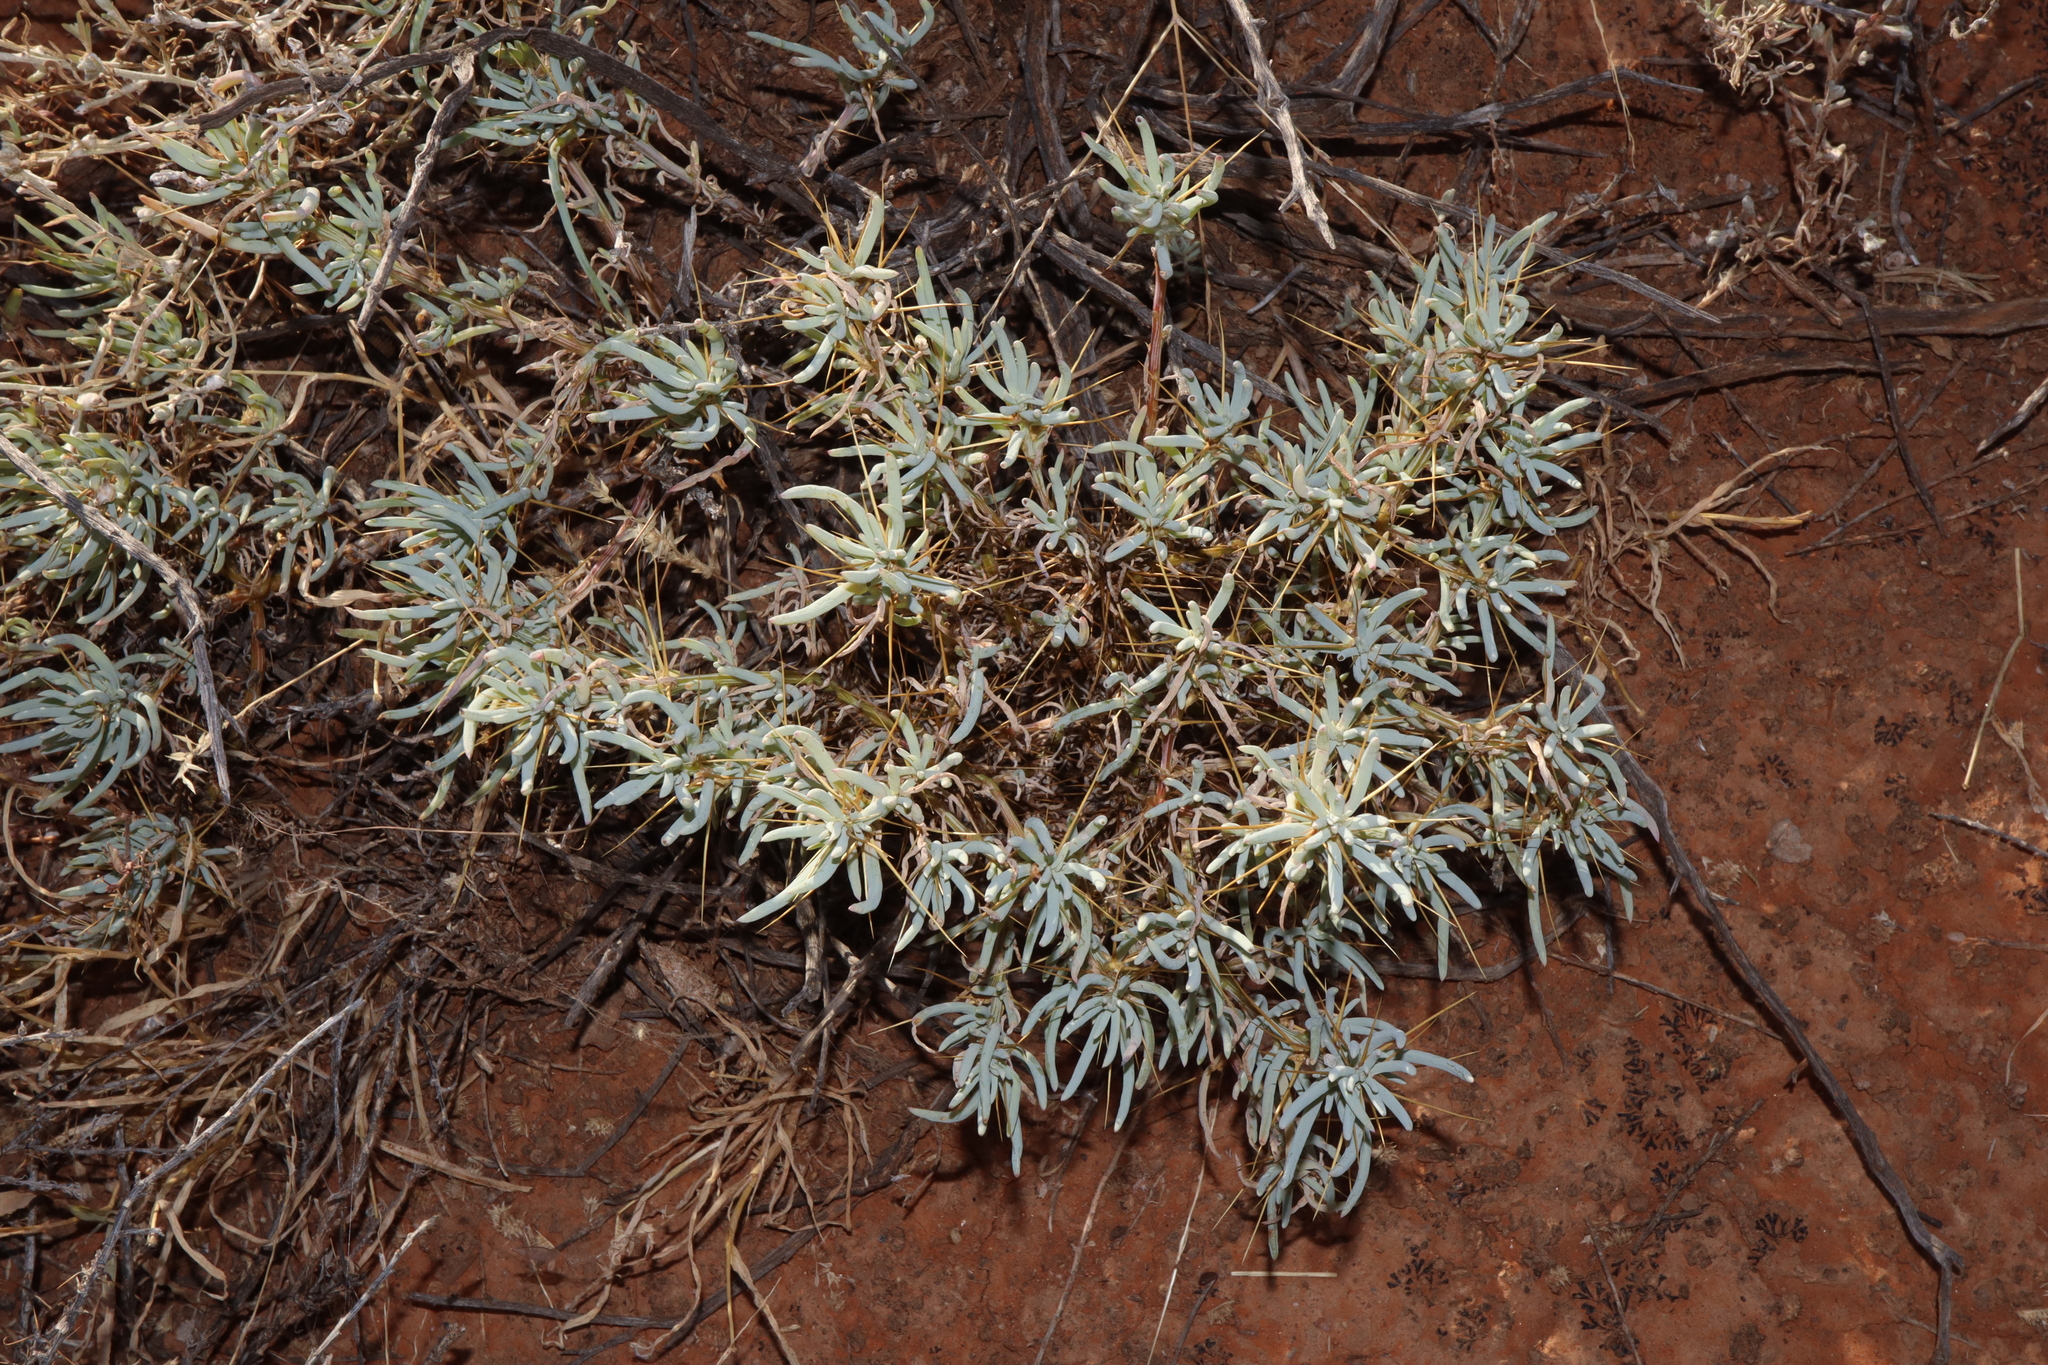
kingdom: Plantae
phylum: Tracheophyta
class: Magnoliopsida
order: Caryophyllales
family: Amaranthaceae
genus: Sclerolaena
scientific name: Sclerolaena longicuspis
